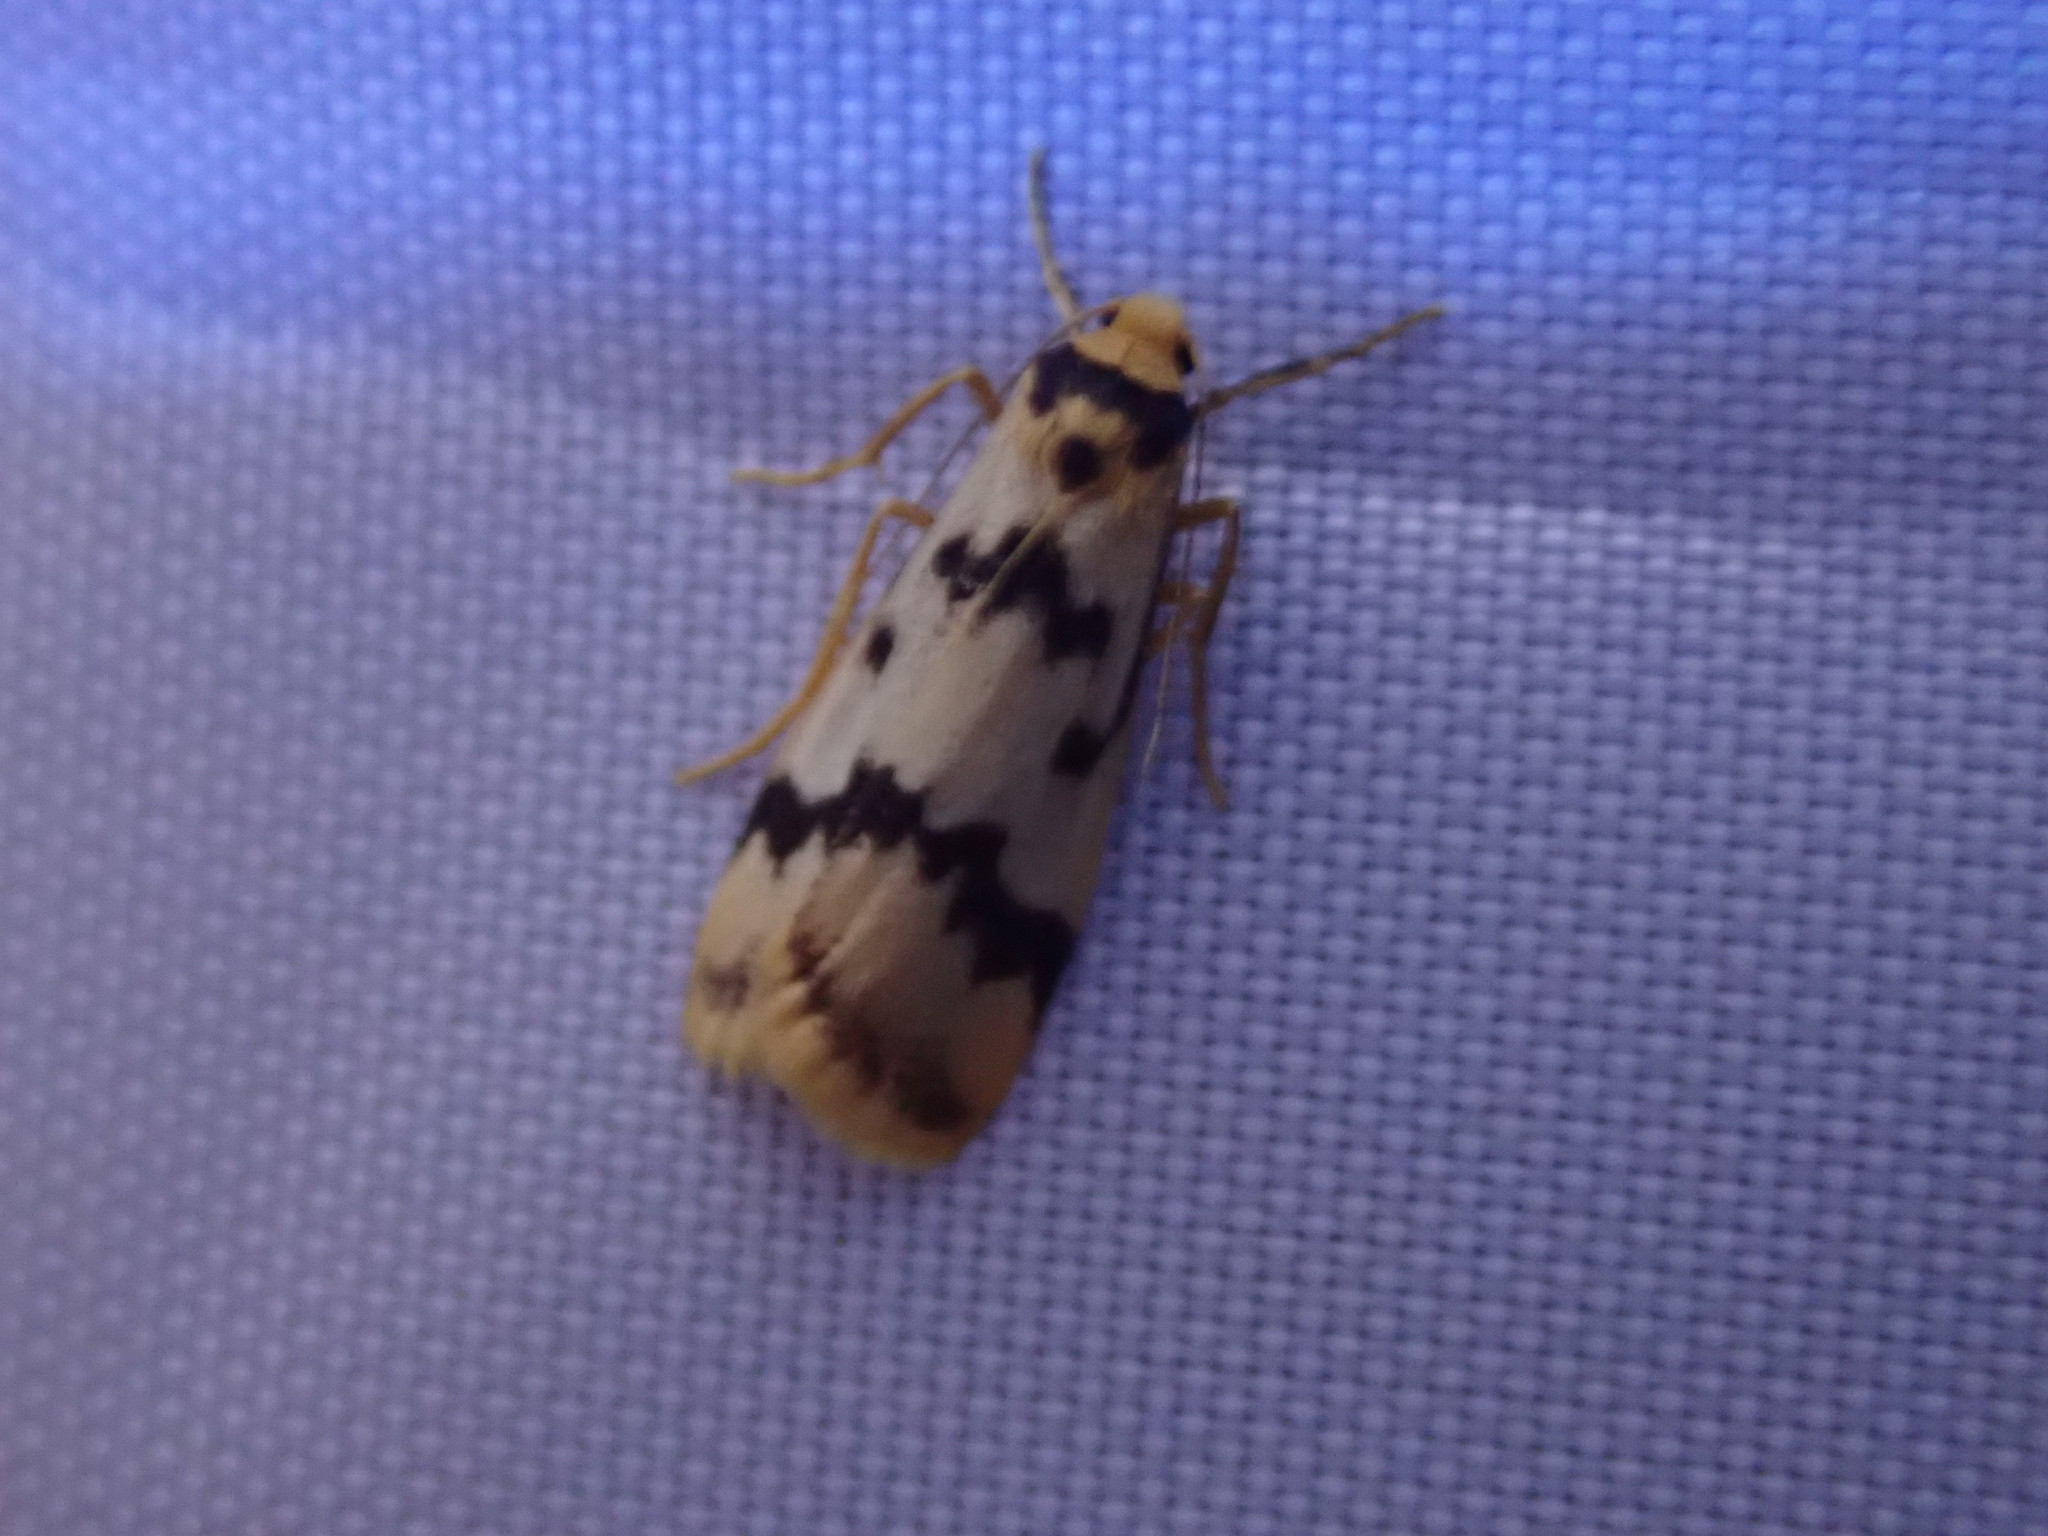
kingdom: Animalia
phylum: Arthropoda
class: Insecta
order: Lepidoptera
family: Erebidae
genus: Tigrioides
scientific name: Tigrioides alterna
